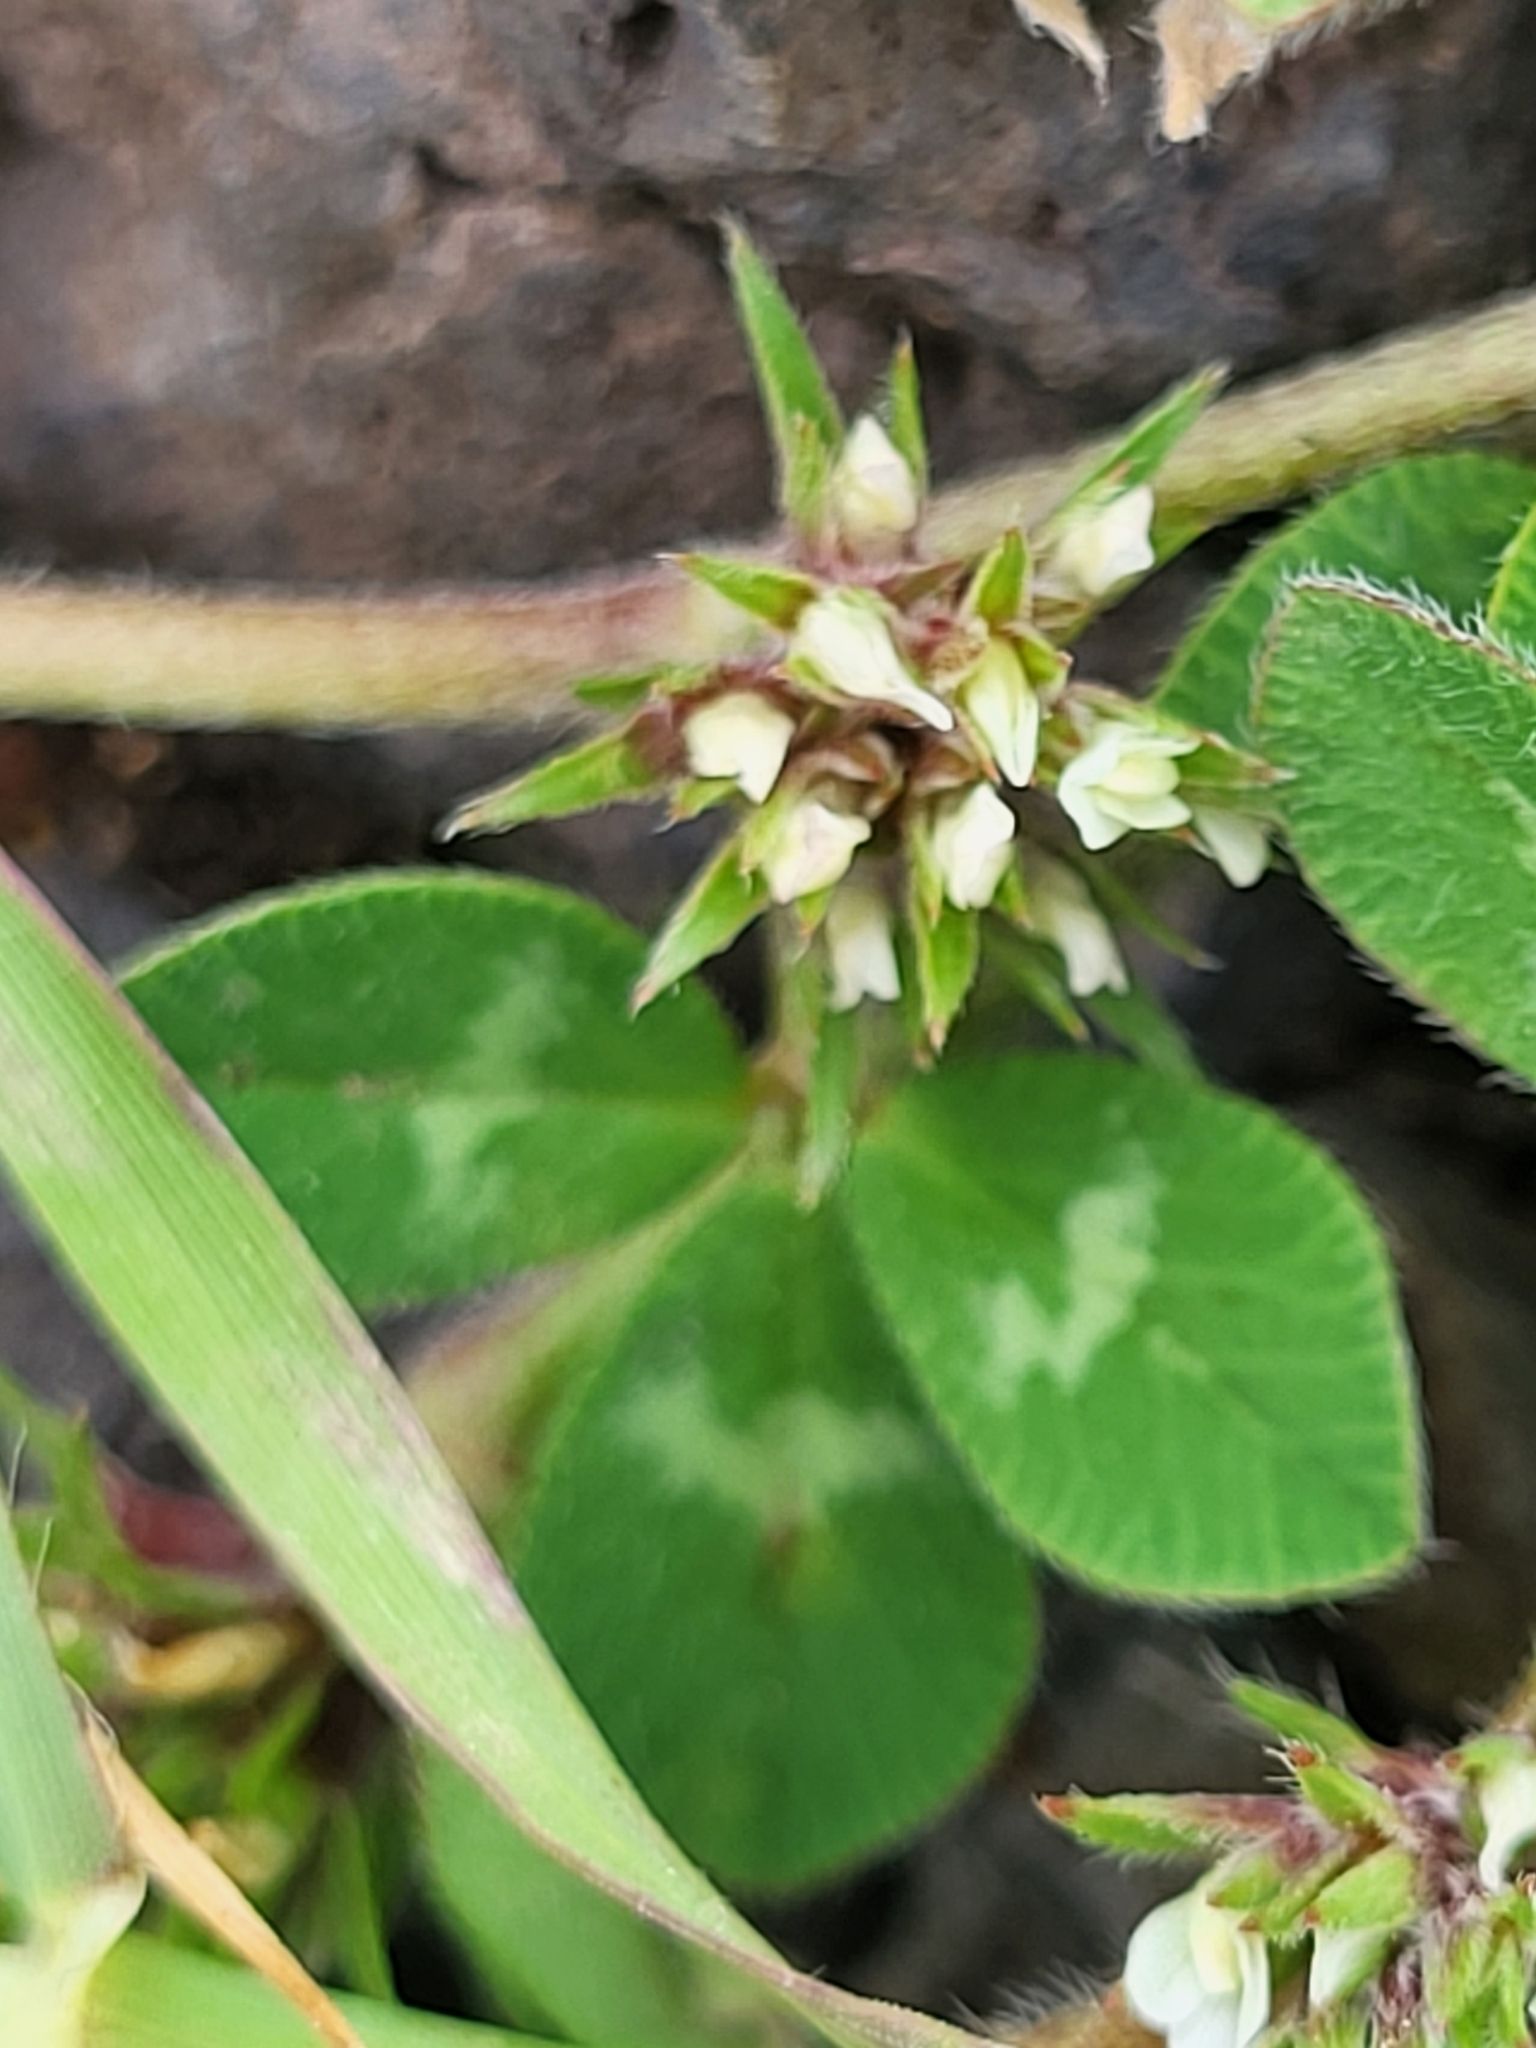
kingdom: Plantae
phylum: Tracheophyta
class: Magnoliopsida
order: Fabales
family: Fabaceae
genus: Trifolium
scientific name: Trifolium scabrum
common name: Rough clover
